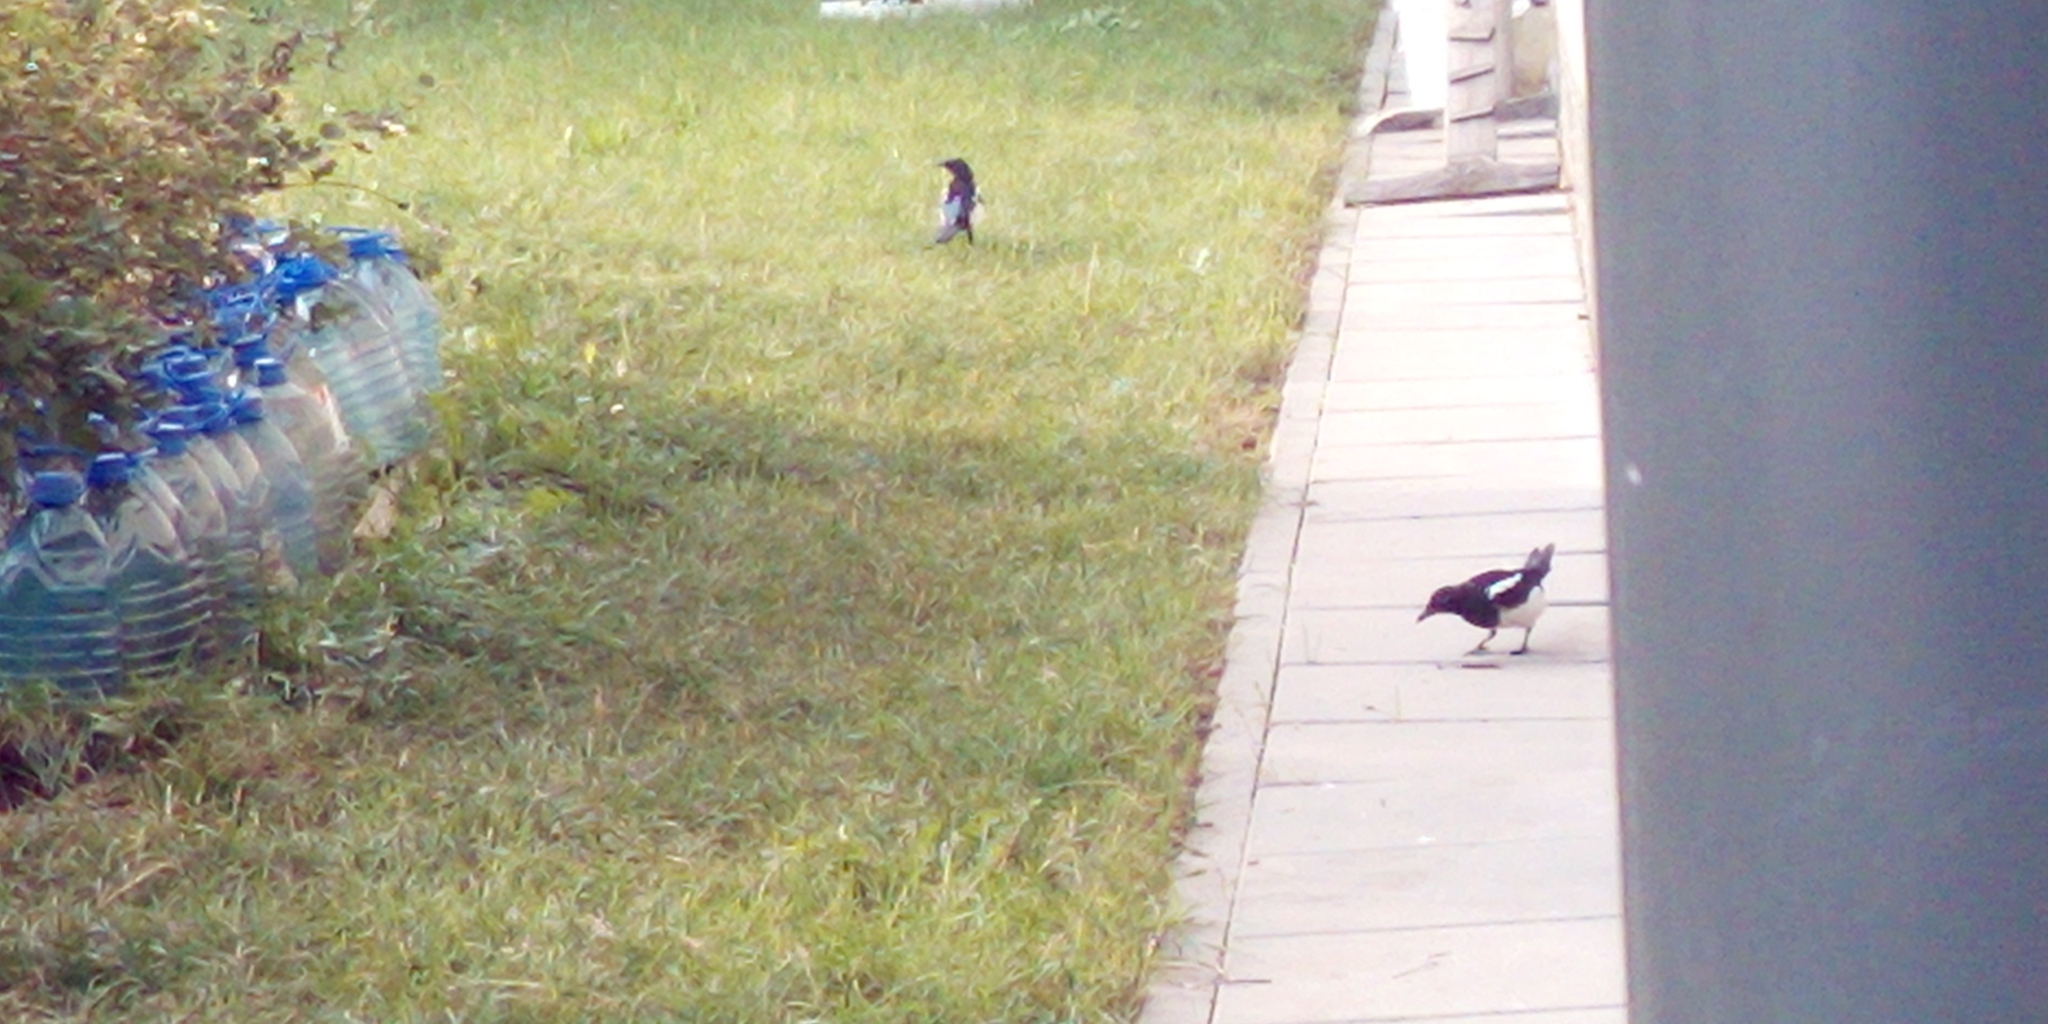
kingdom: Animalia
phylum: Chordata
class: Aves
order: Passeriformes
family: Corvidae
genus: Pica
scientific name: Pica pica
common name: Eurasian magpie
